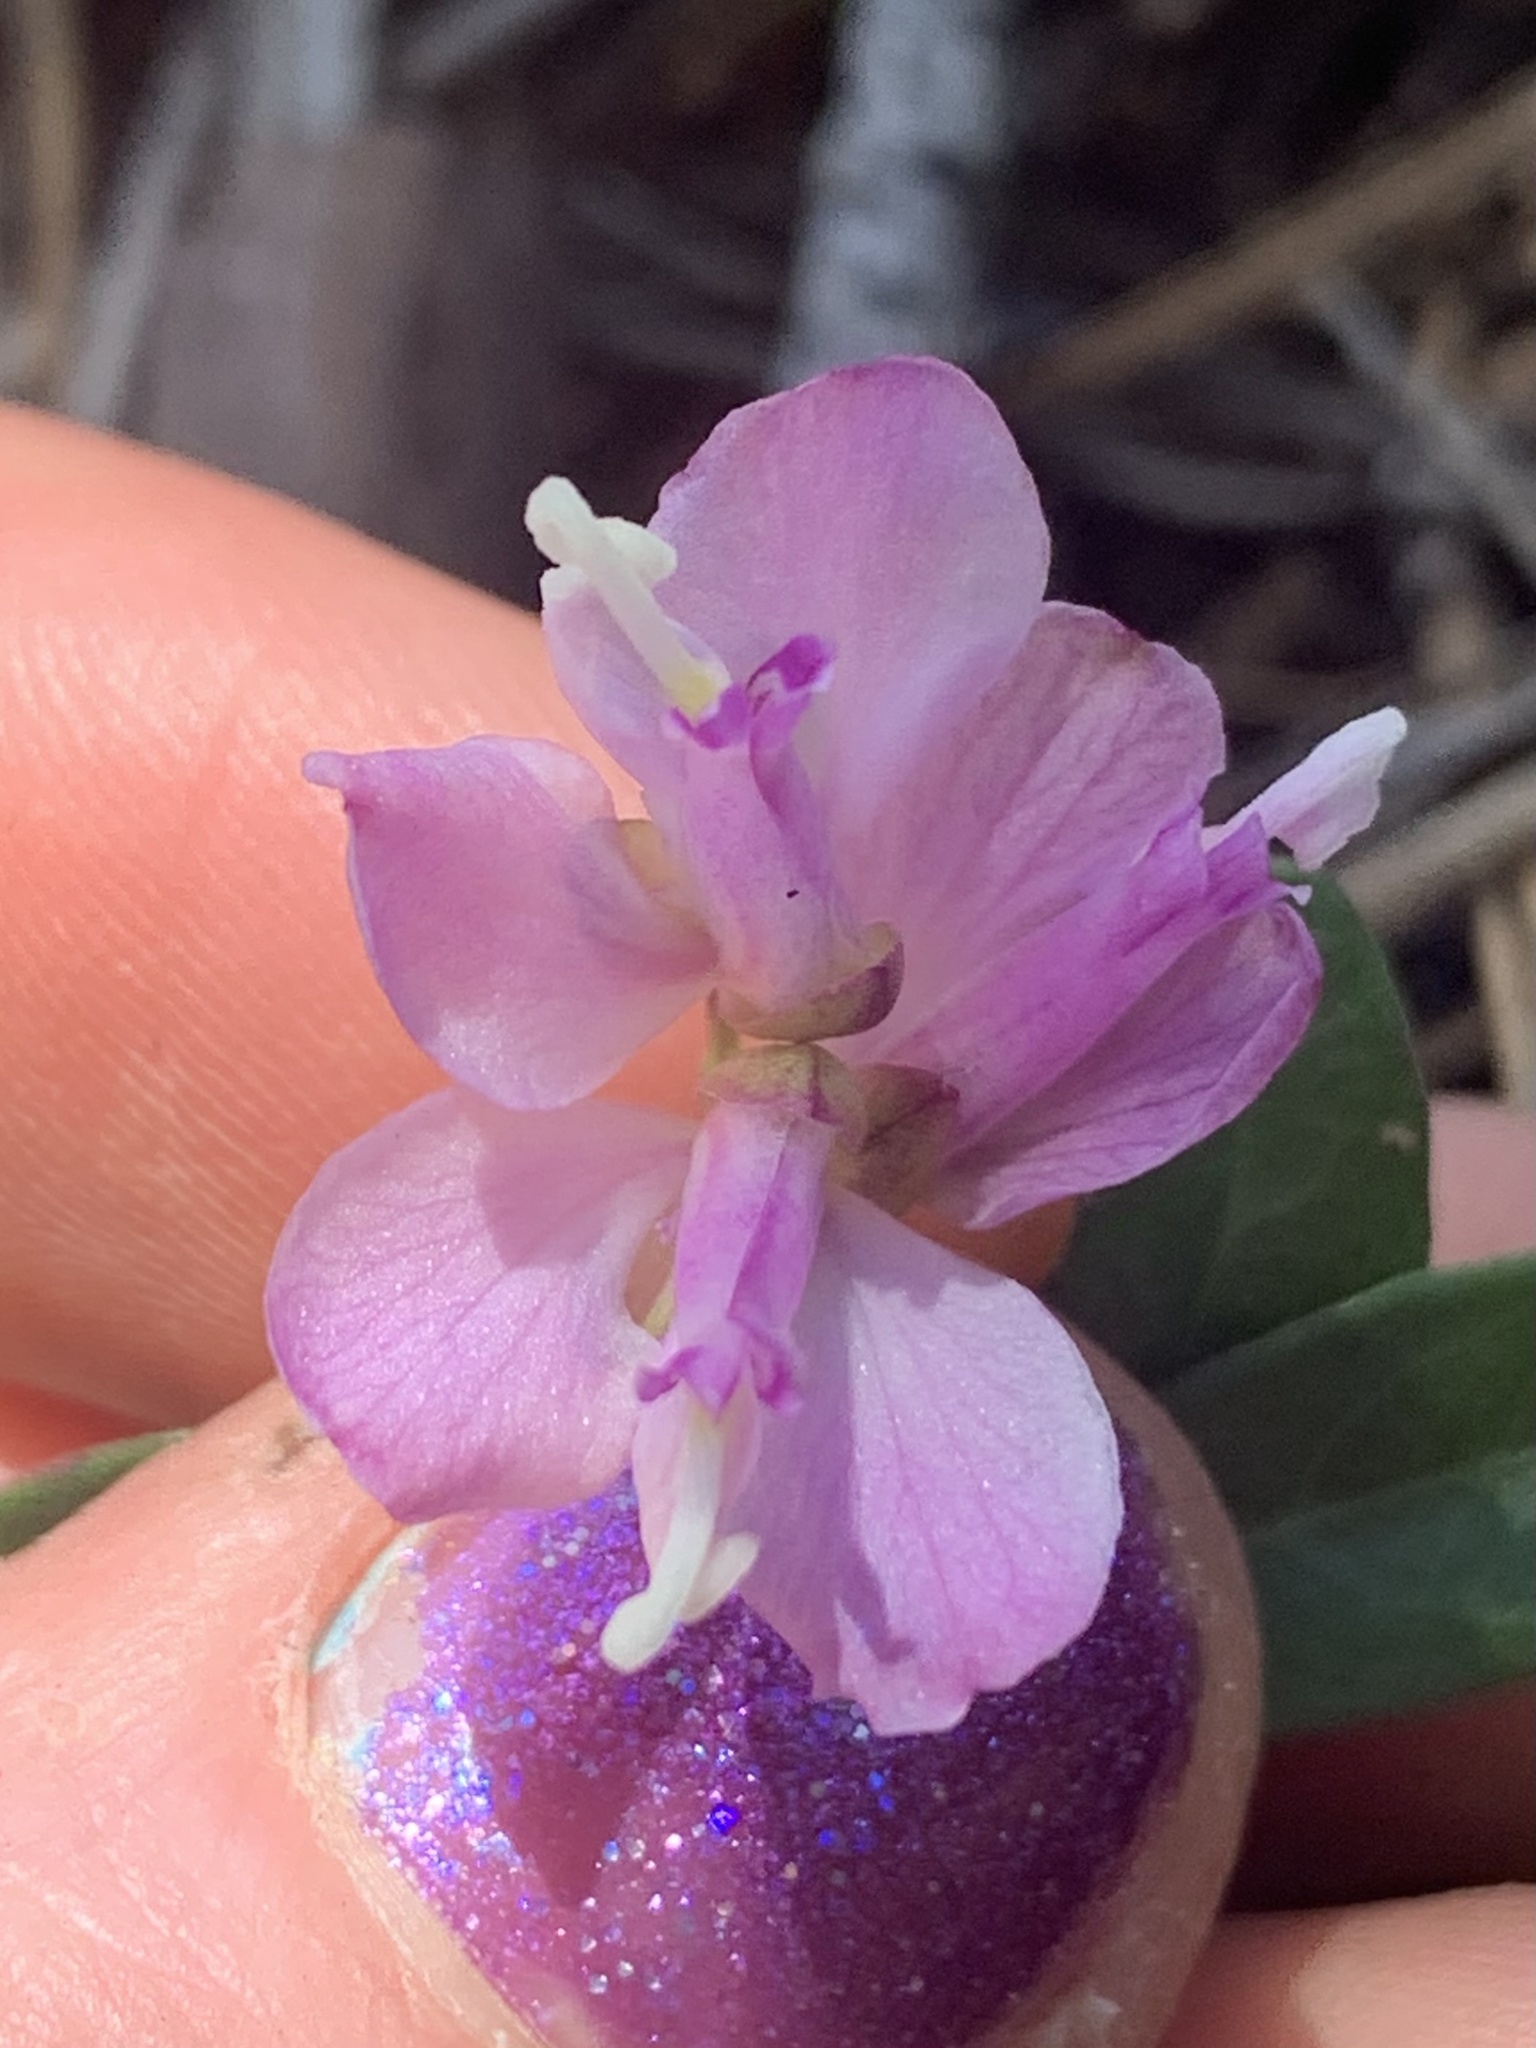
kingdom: Plantae
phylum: Tracheophyta
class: Magnoliopsida
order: Fabales
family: Polygalaceae
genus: Rhinotropis
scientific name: Rhinotropis californica
